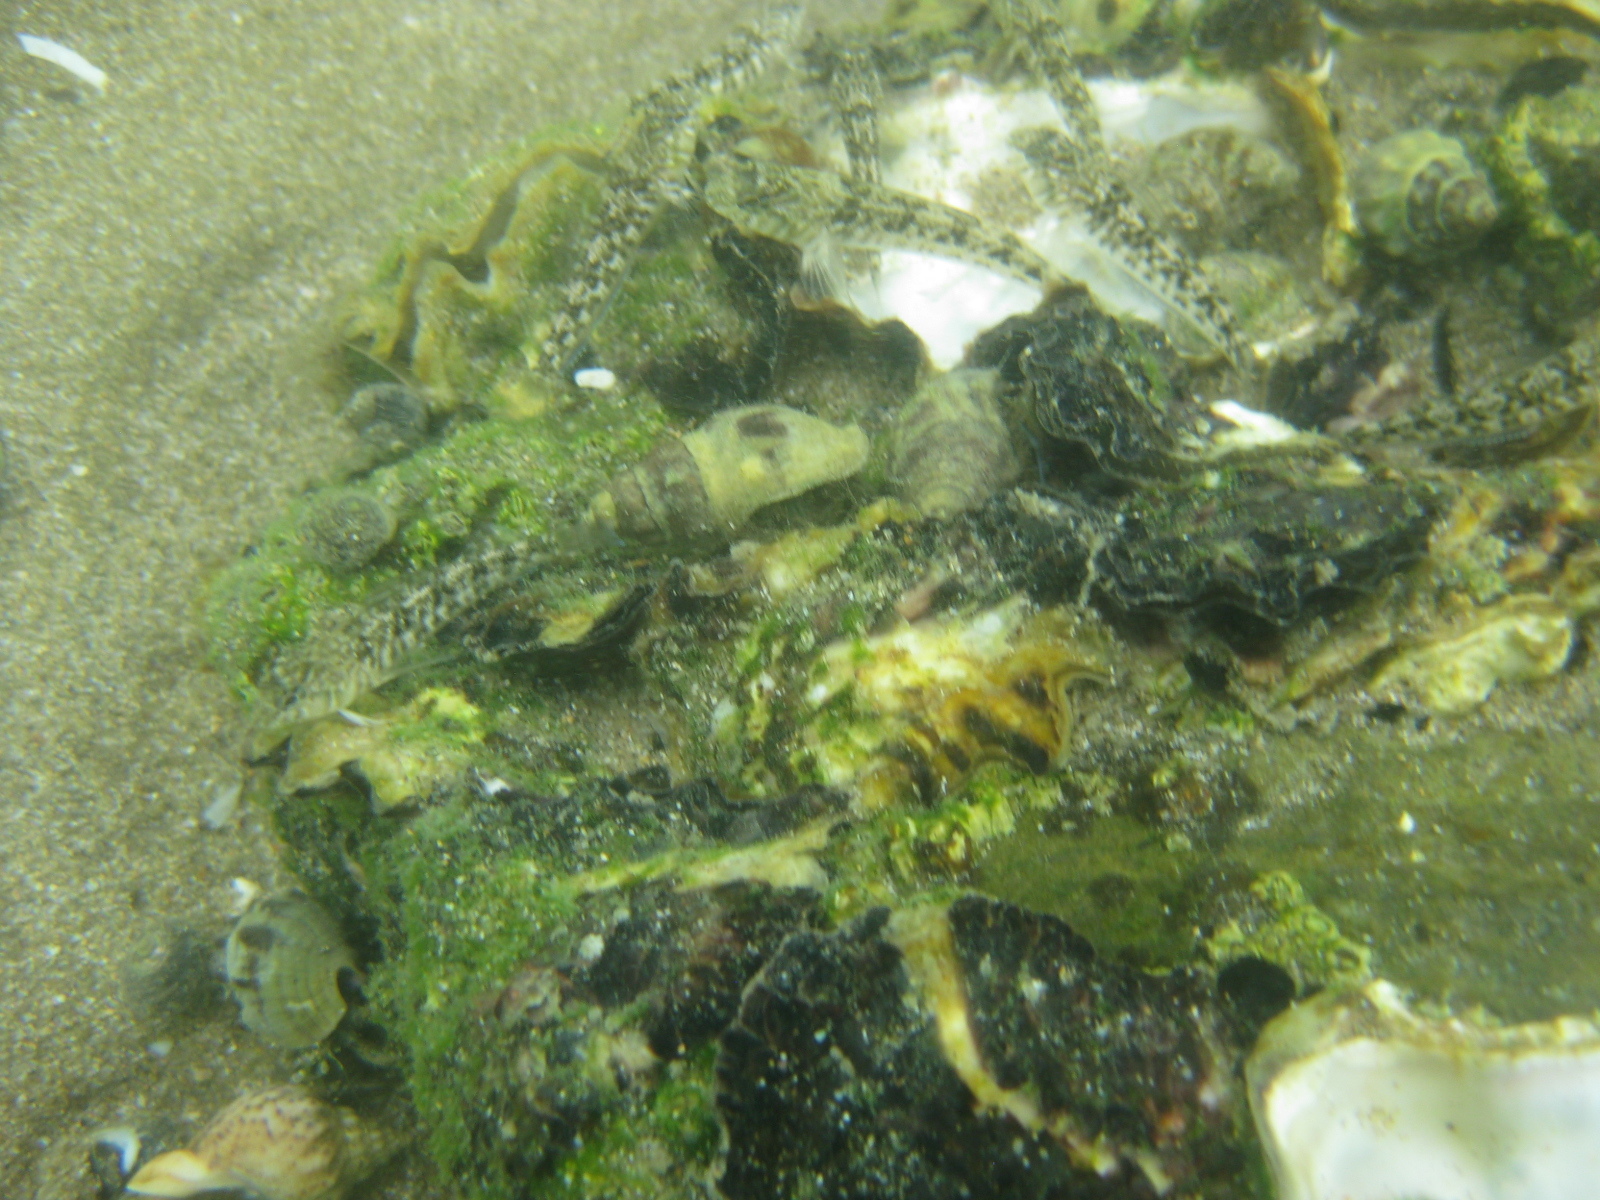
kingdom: Animalia
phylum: Chordata
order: Perciformes
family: Tripterygiidae
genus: Forsterygion
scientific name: Forsterygion nigripenne
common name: Cockabully
